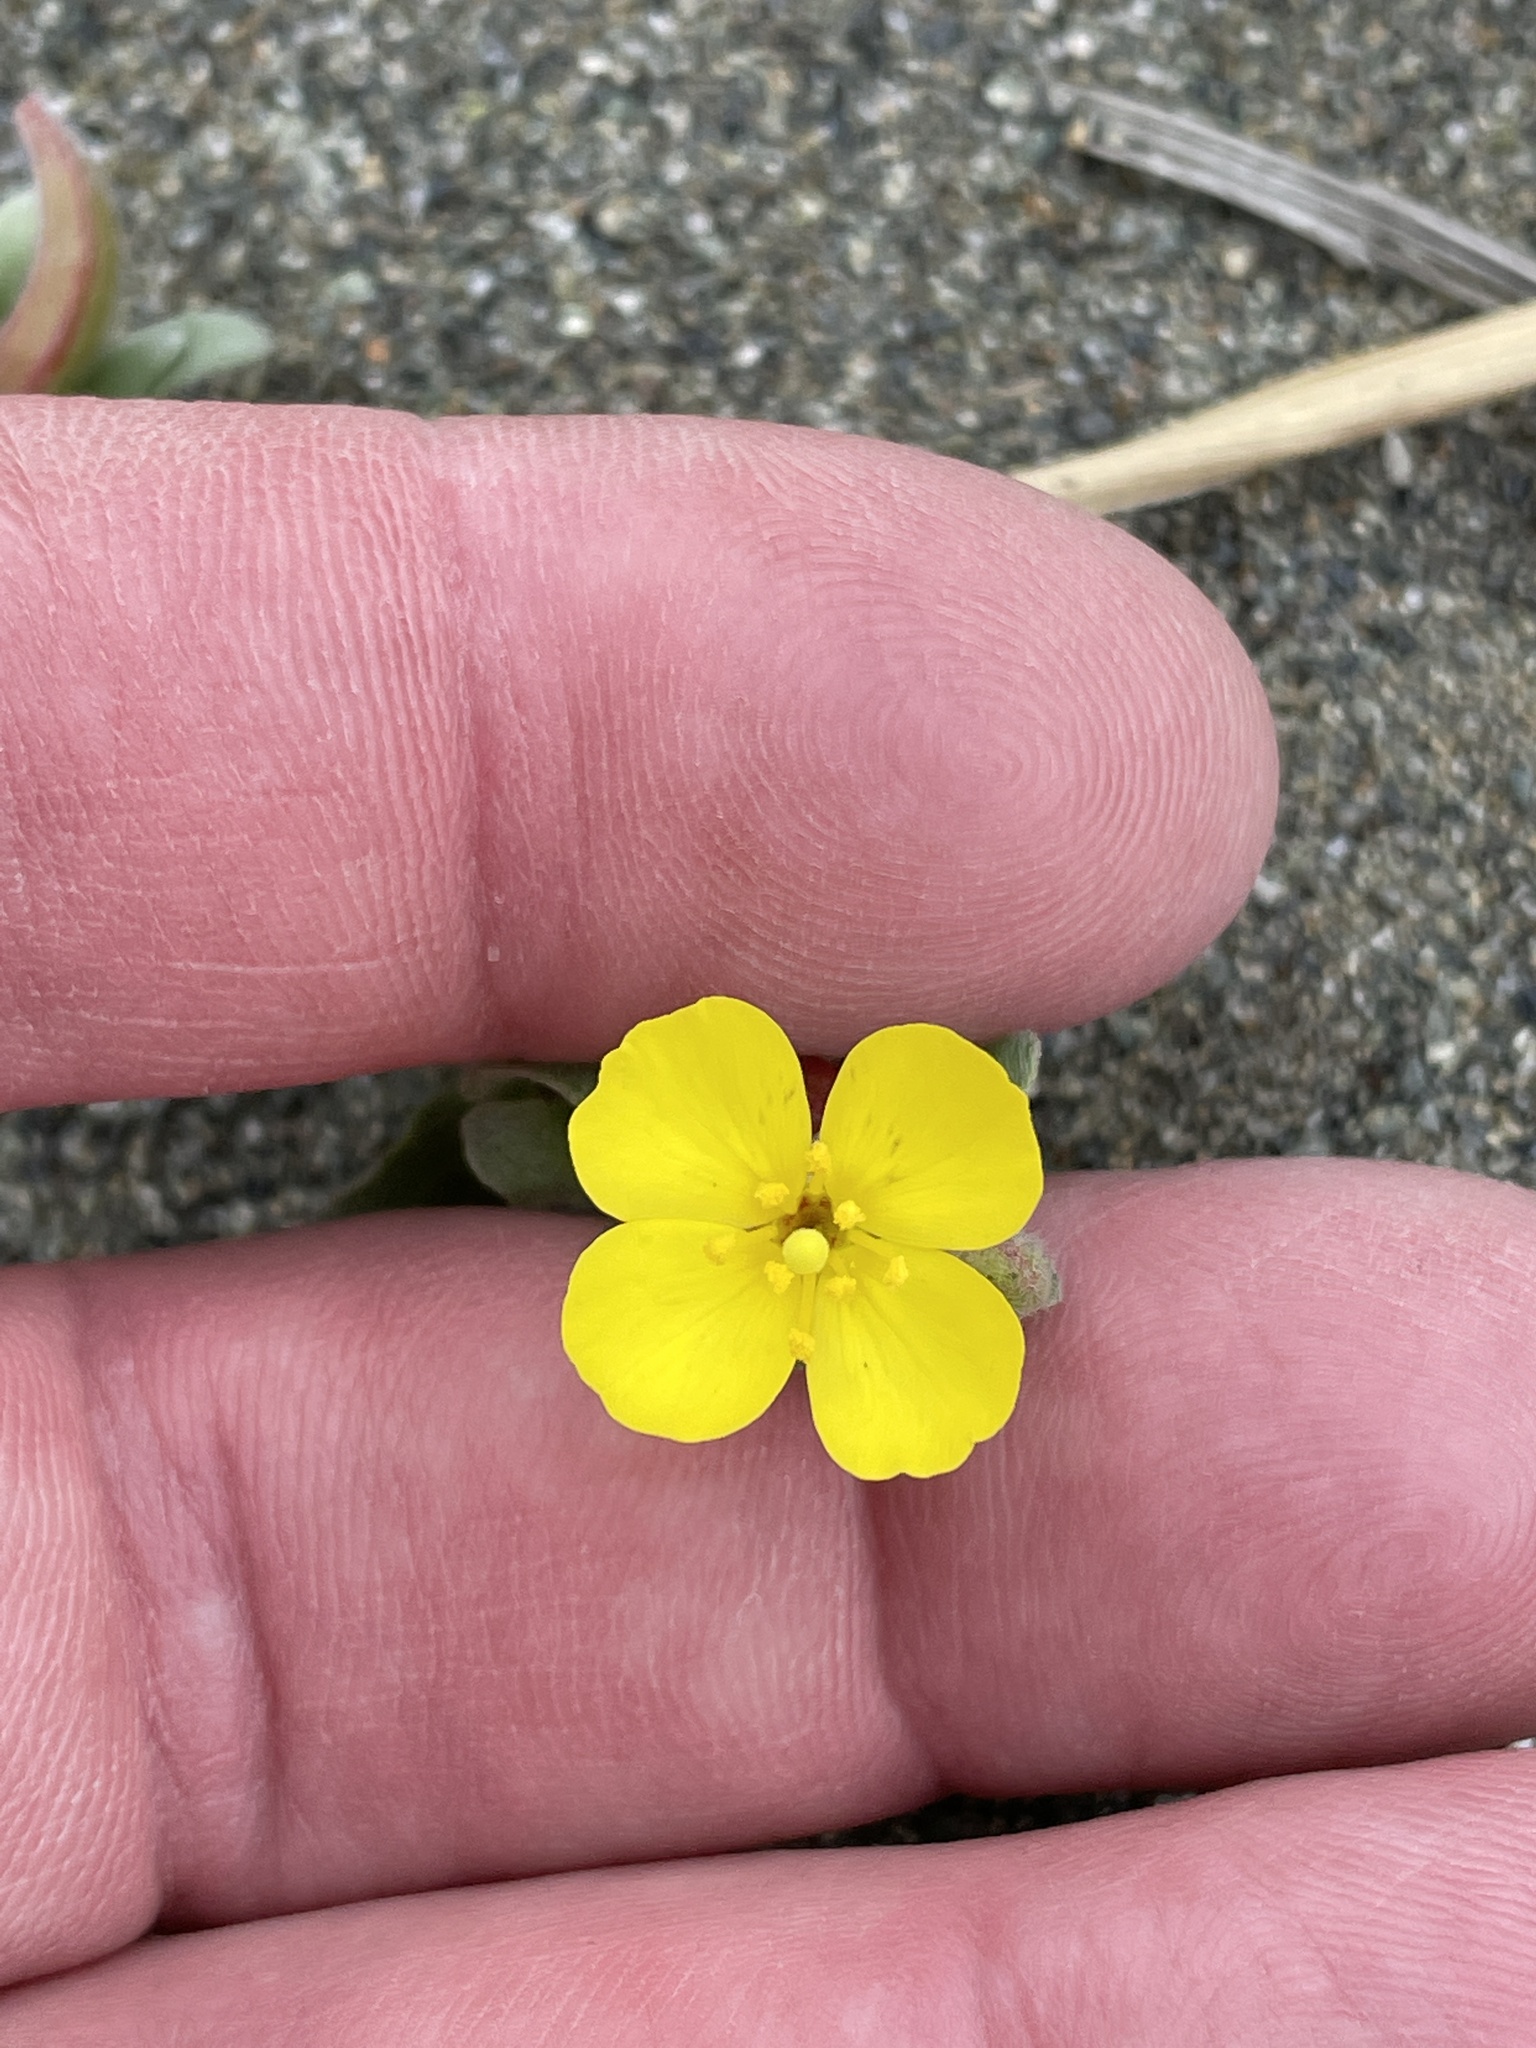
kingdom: Plantae
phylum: Tracheophyta
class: Magnoliopsida
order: Myrtales
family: Onagraceae
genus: Camissoniopsis
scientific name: Camissoniopsis cheiranthifolia
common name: Beach suncup
